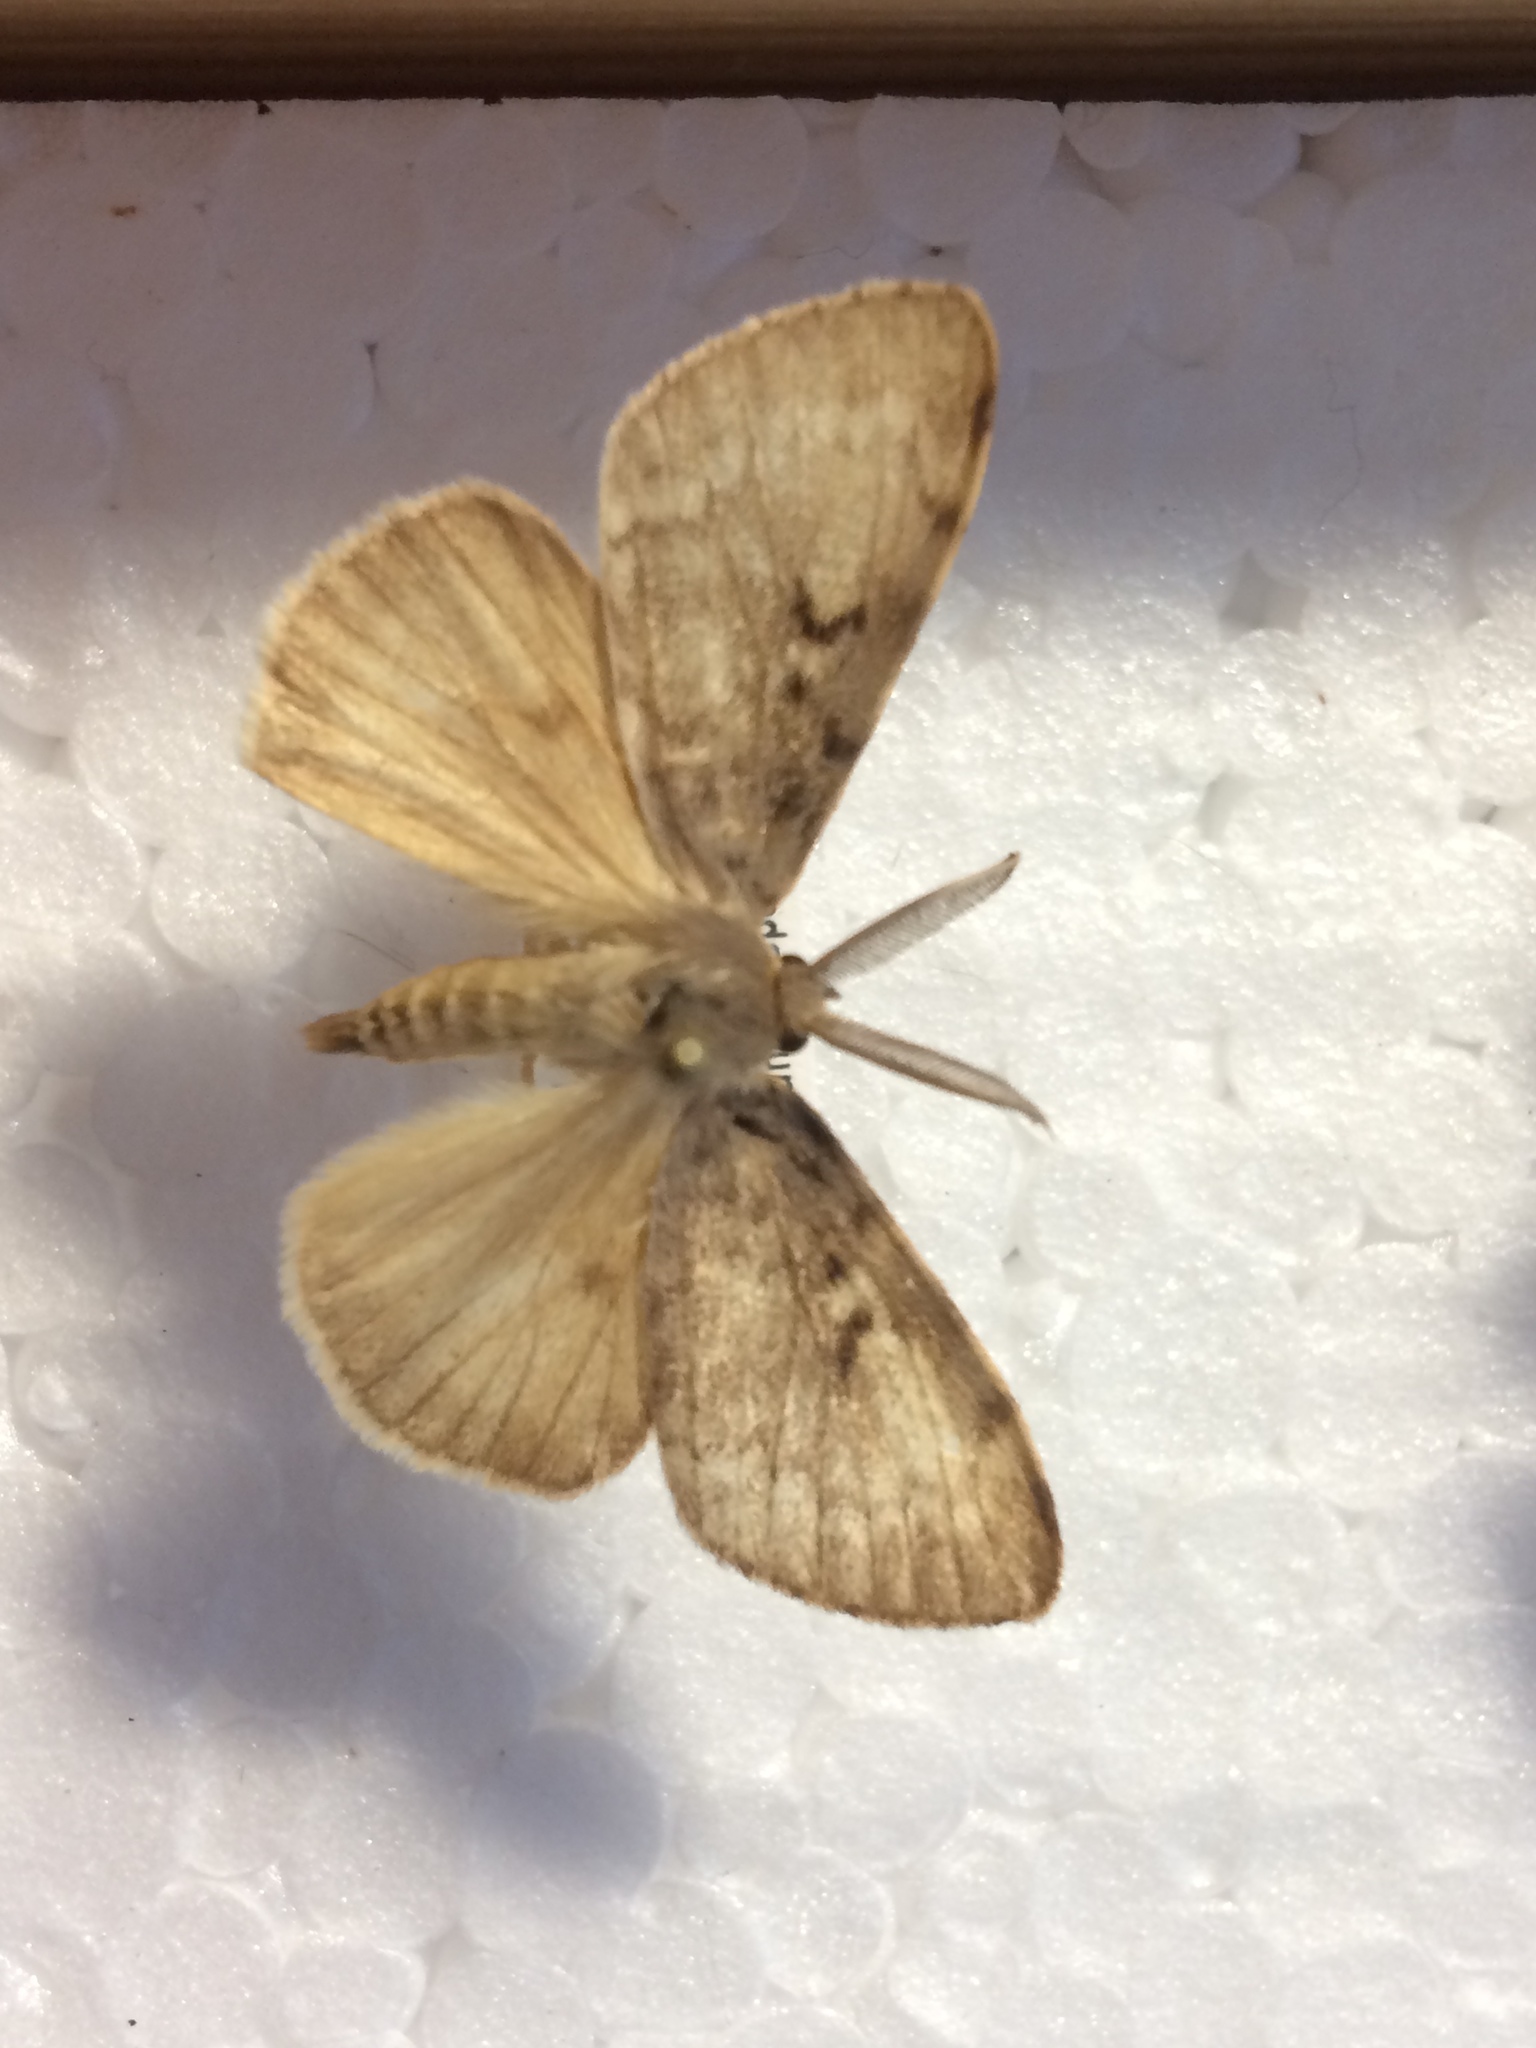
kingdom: Animalia
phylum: Arthropoda
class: Insecta
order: Lepidoptera
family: Erebidae
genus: Lymantria
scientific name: Lymantria dispar
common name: Gypsy moth
